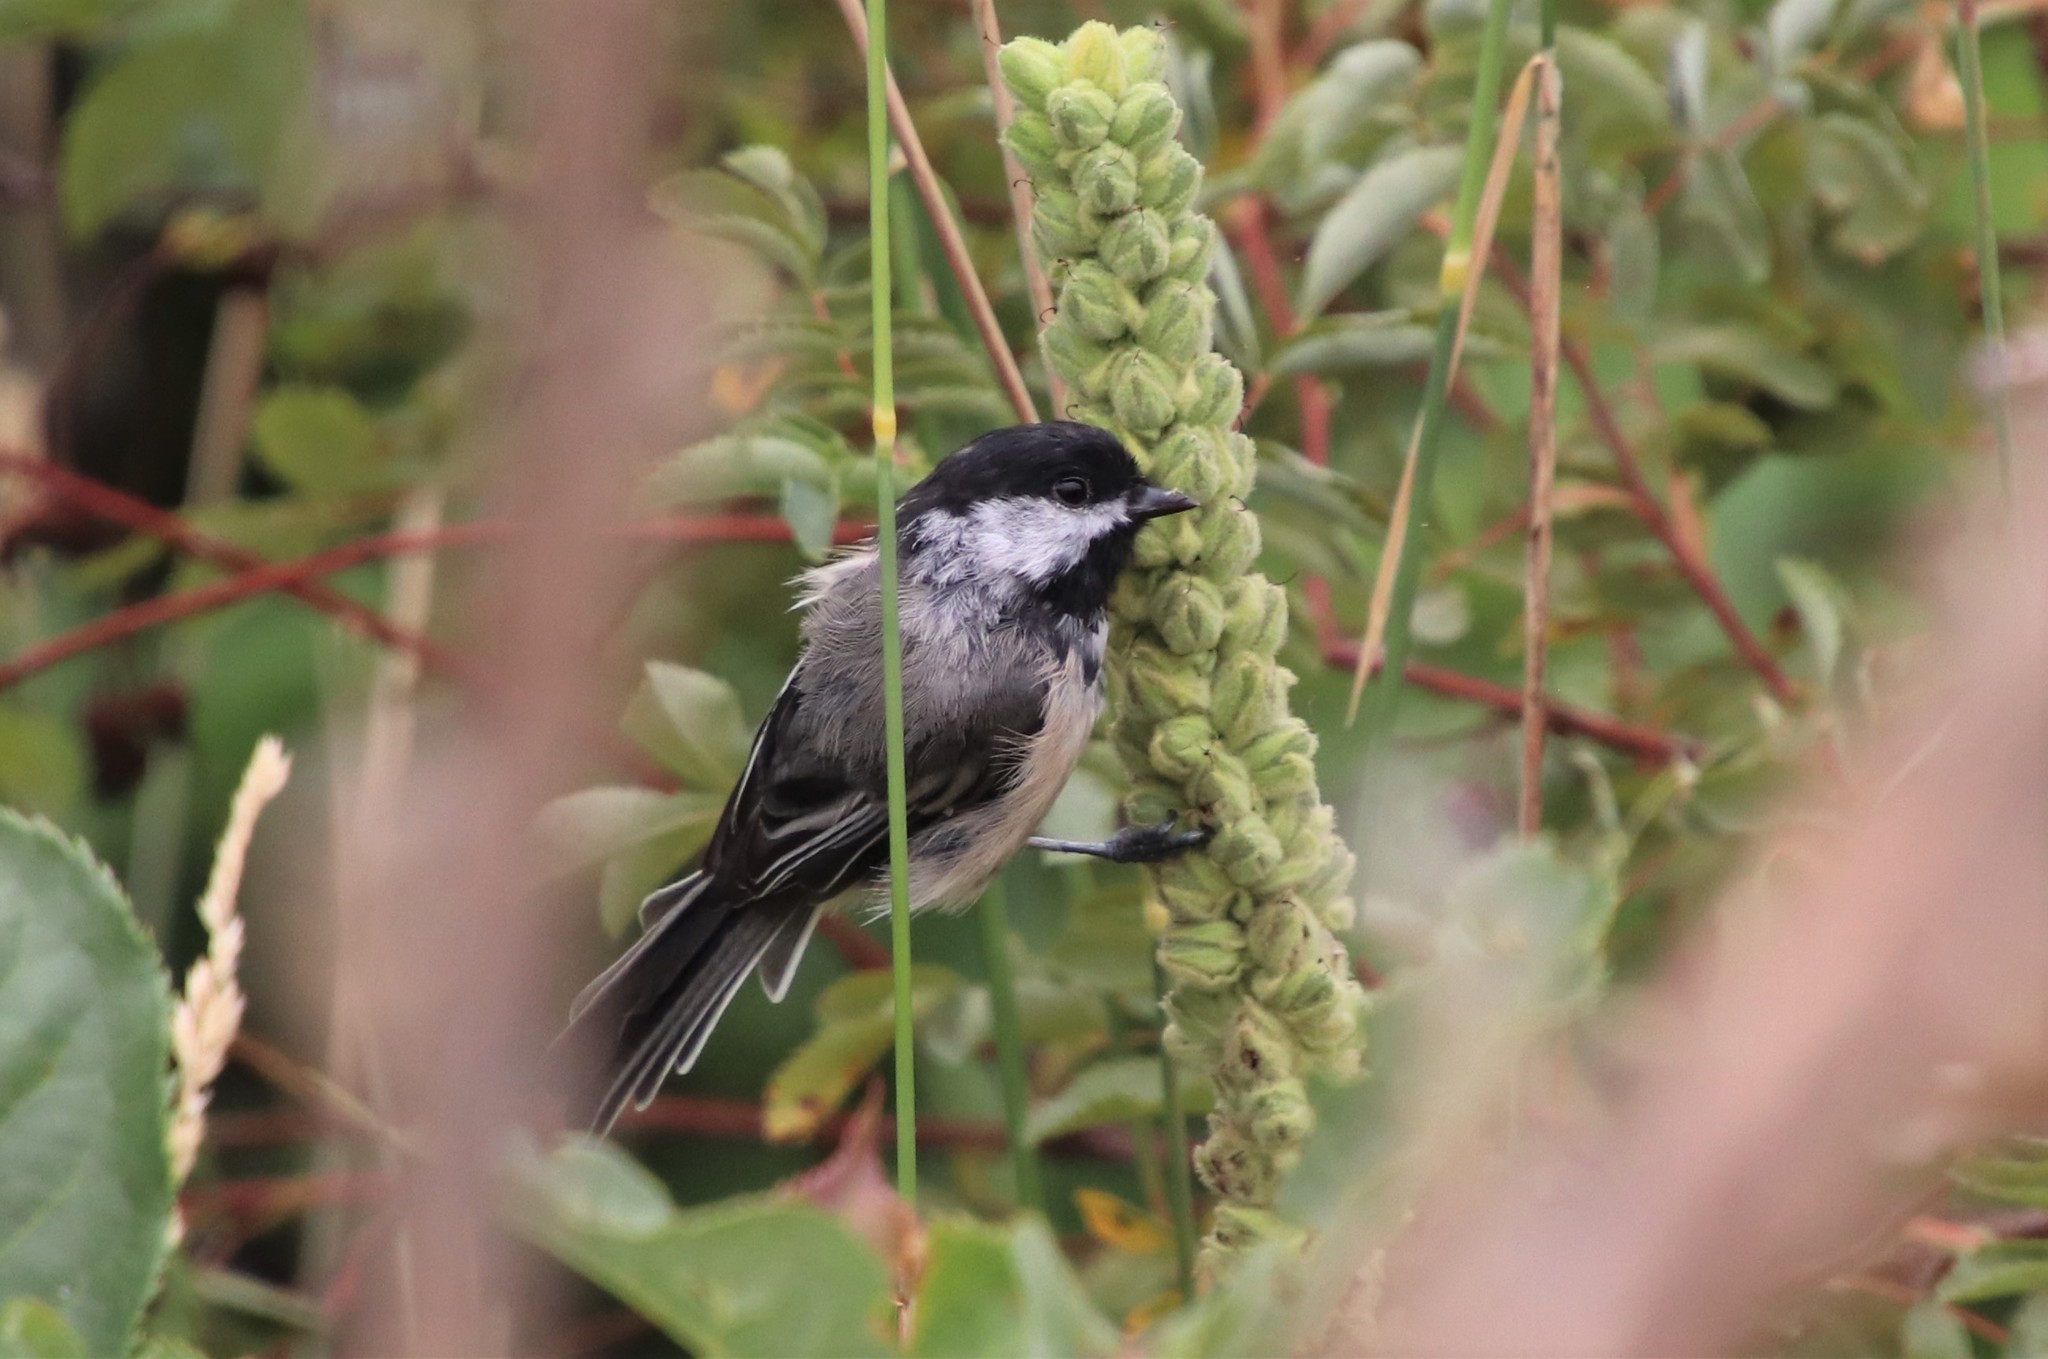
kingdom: Animalia
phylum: Chordata
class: Aves
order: Passeriformes
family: Paridae
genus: Poecile
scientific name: Poecile atricapillus
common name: Black-capped chickadee
